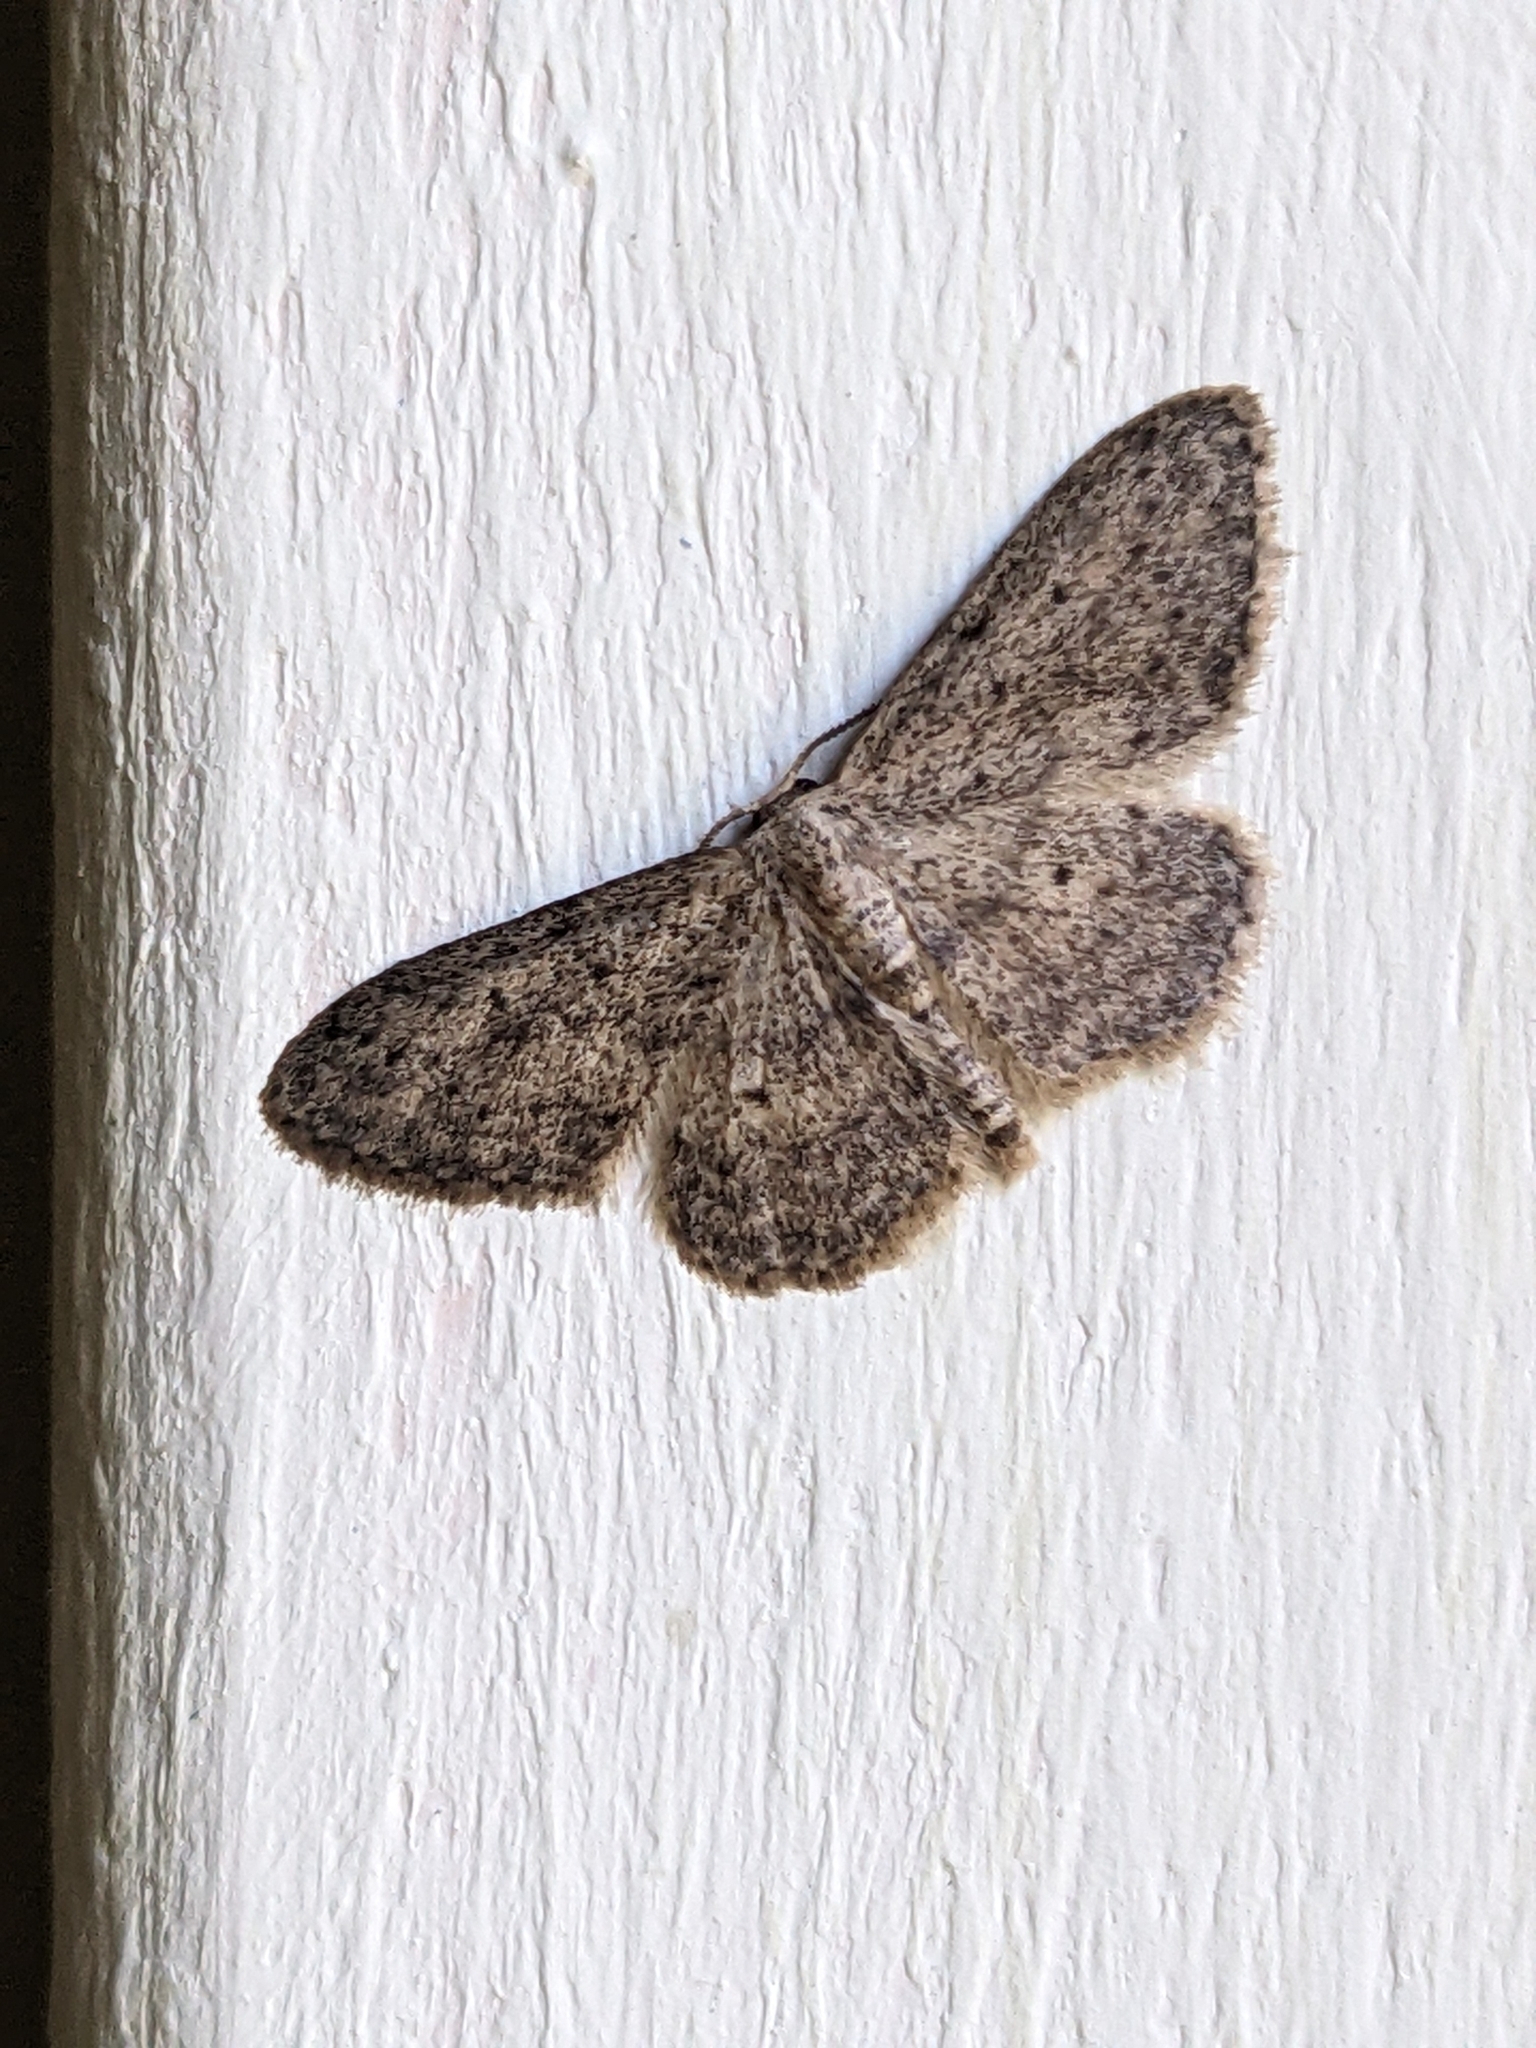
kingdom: Animalia
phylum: Arthropoda
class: Insecta
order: Lepidoptera
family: Geometridae
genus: Idaea
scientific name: Idaea seriata
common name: Small dusty wave
